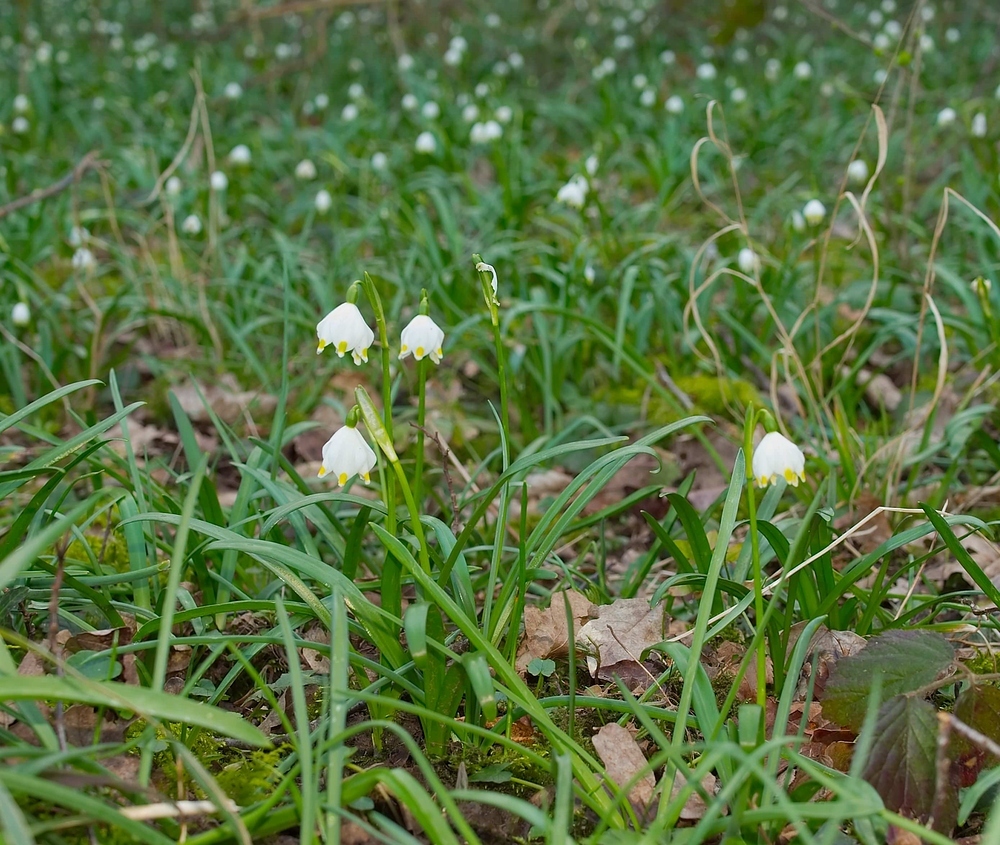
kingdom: Plantae
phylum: Tracheophyta
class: Liliopsida
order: Asparagales
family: Amaryllidaceae
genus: Leucojum
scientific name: Leucojum vernum
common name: Spring snowflake
